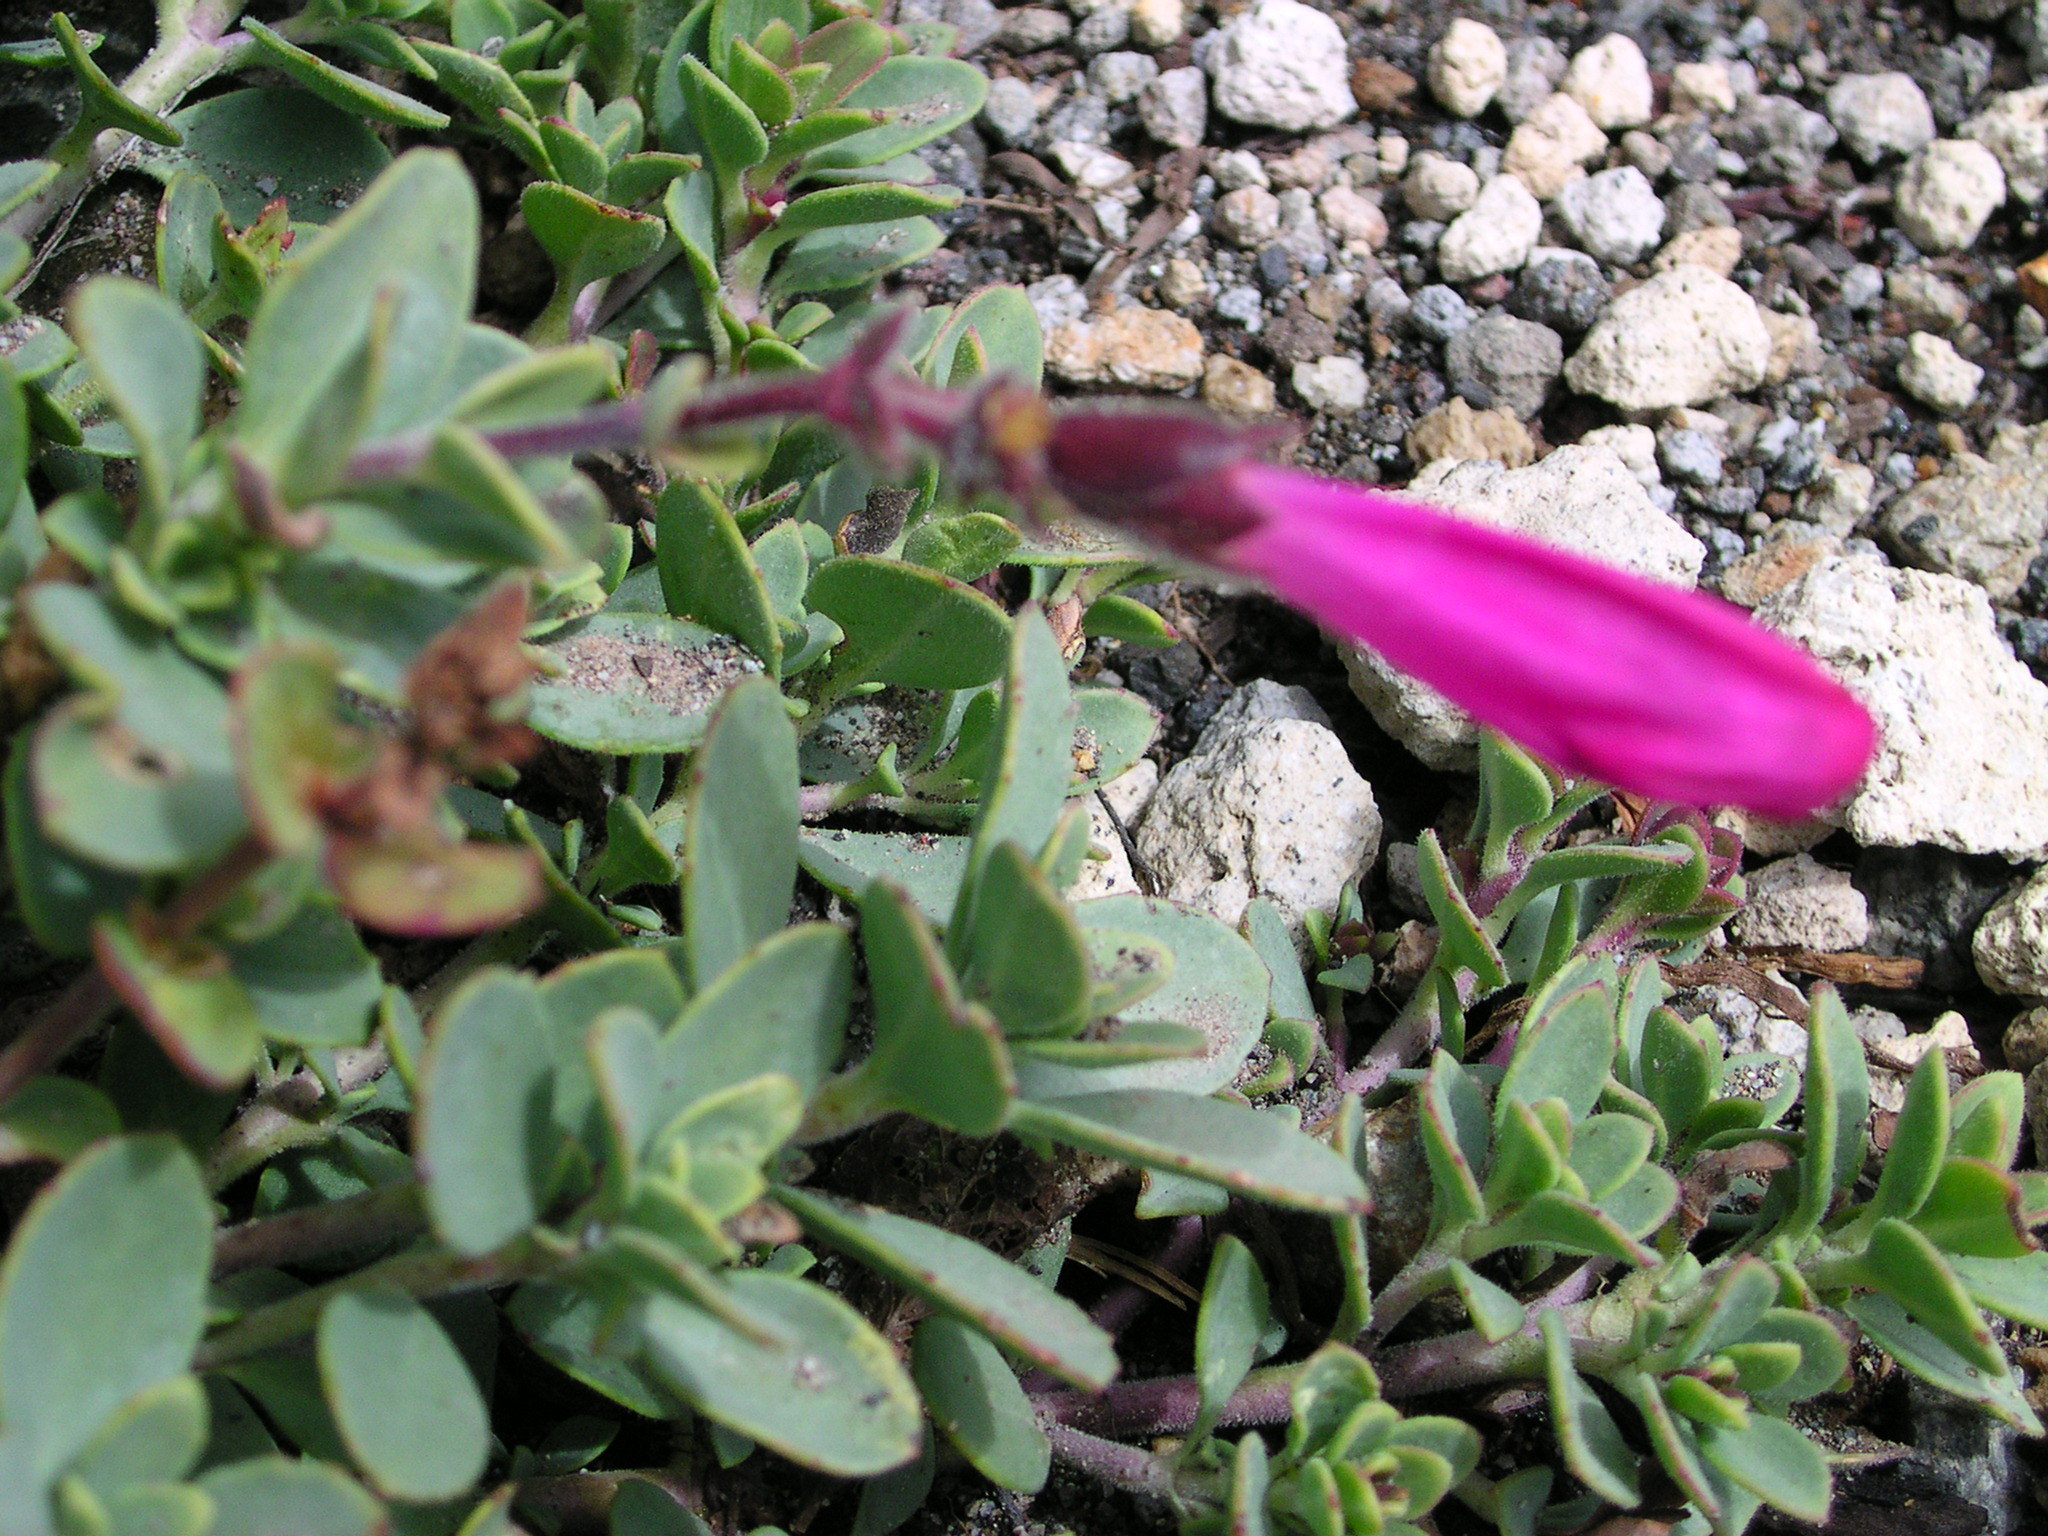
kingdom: Plantae
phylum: Tracheophyta
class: Magnoliopsida
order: Lamiales
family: Plantaginaceae
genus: Penstemon
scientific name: Penstemon rupicola
